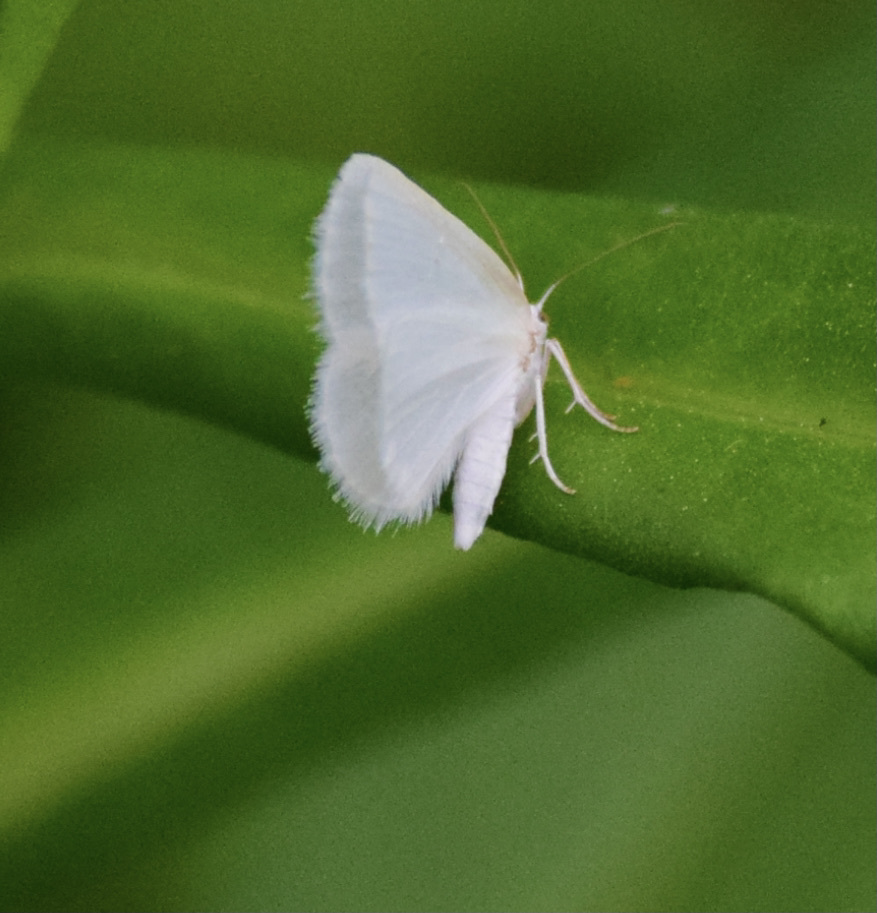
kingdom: Animalia
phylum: Arthropoda
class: Insecta
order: Lepidoptera
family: Geometridae
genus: Lomographa
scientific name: Lomographa vestaliata
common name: White spring moth
